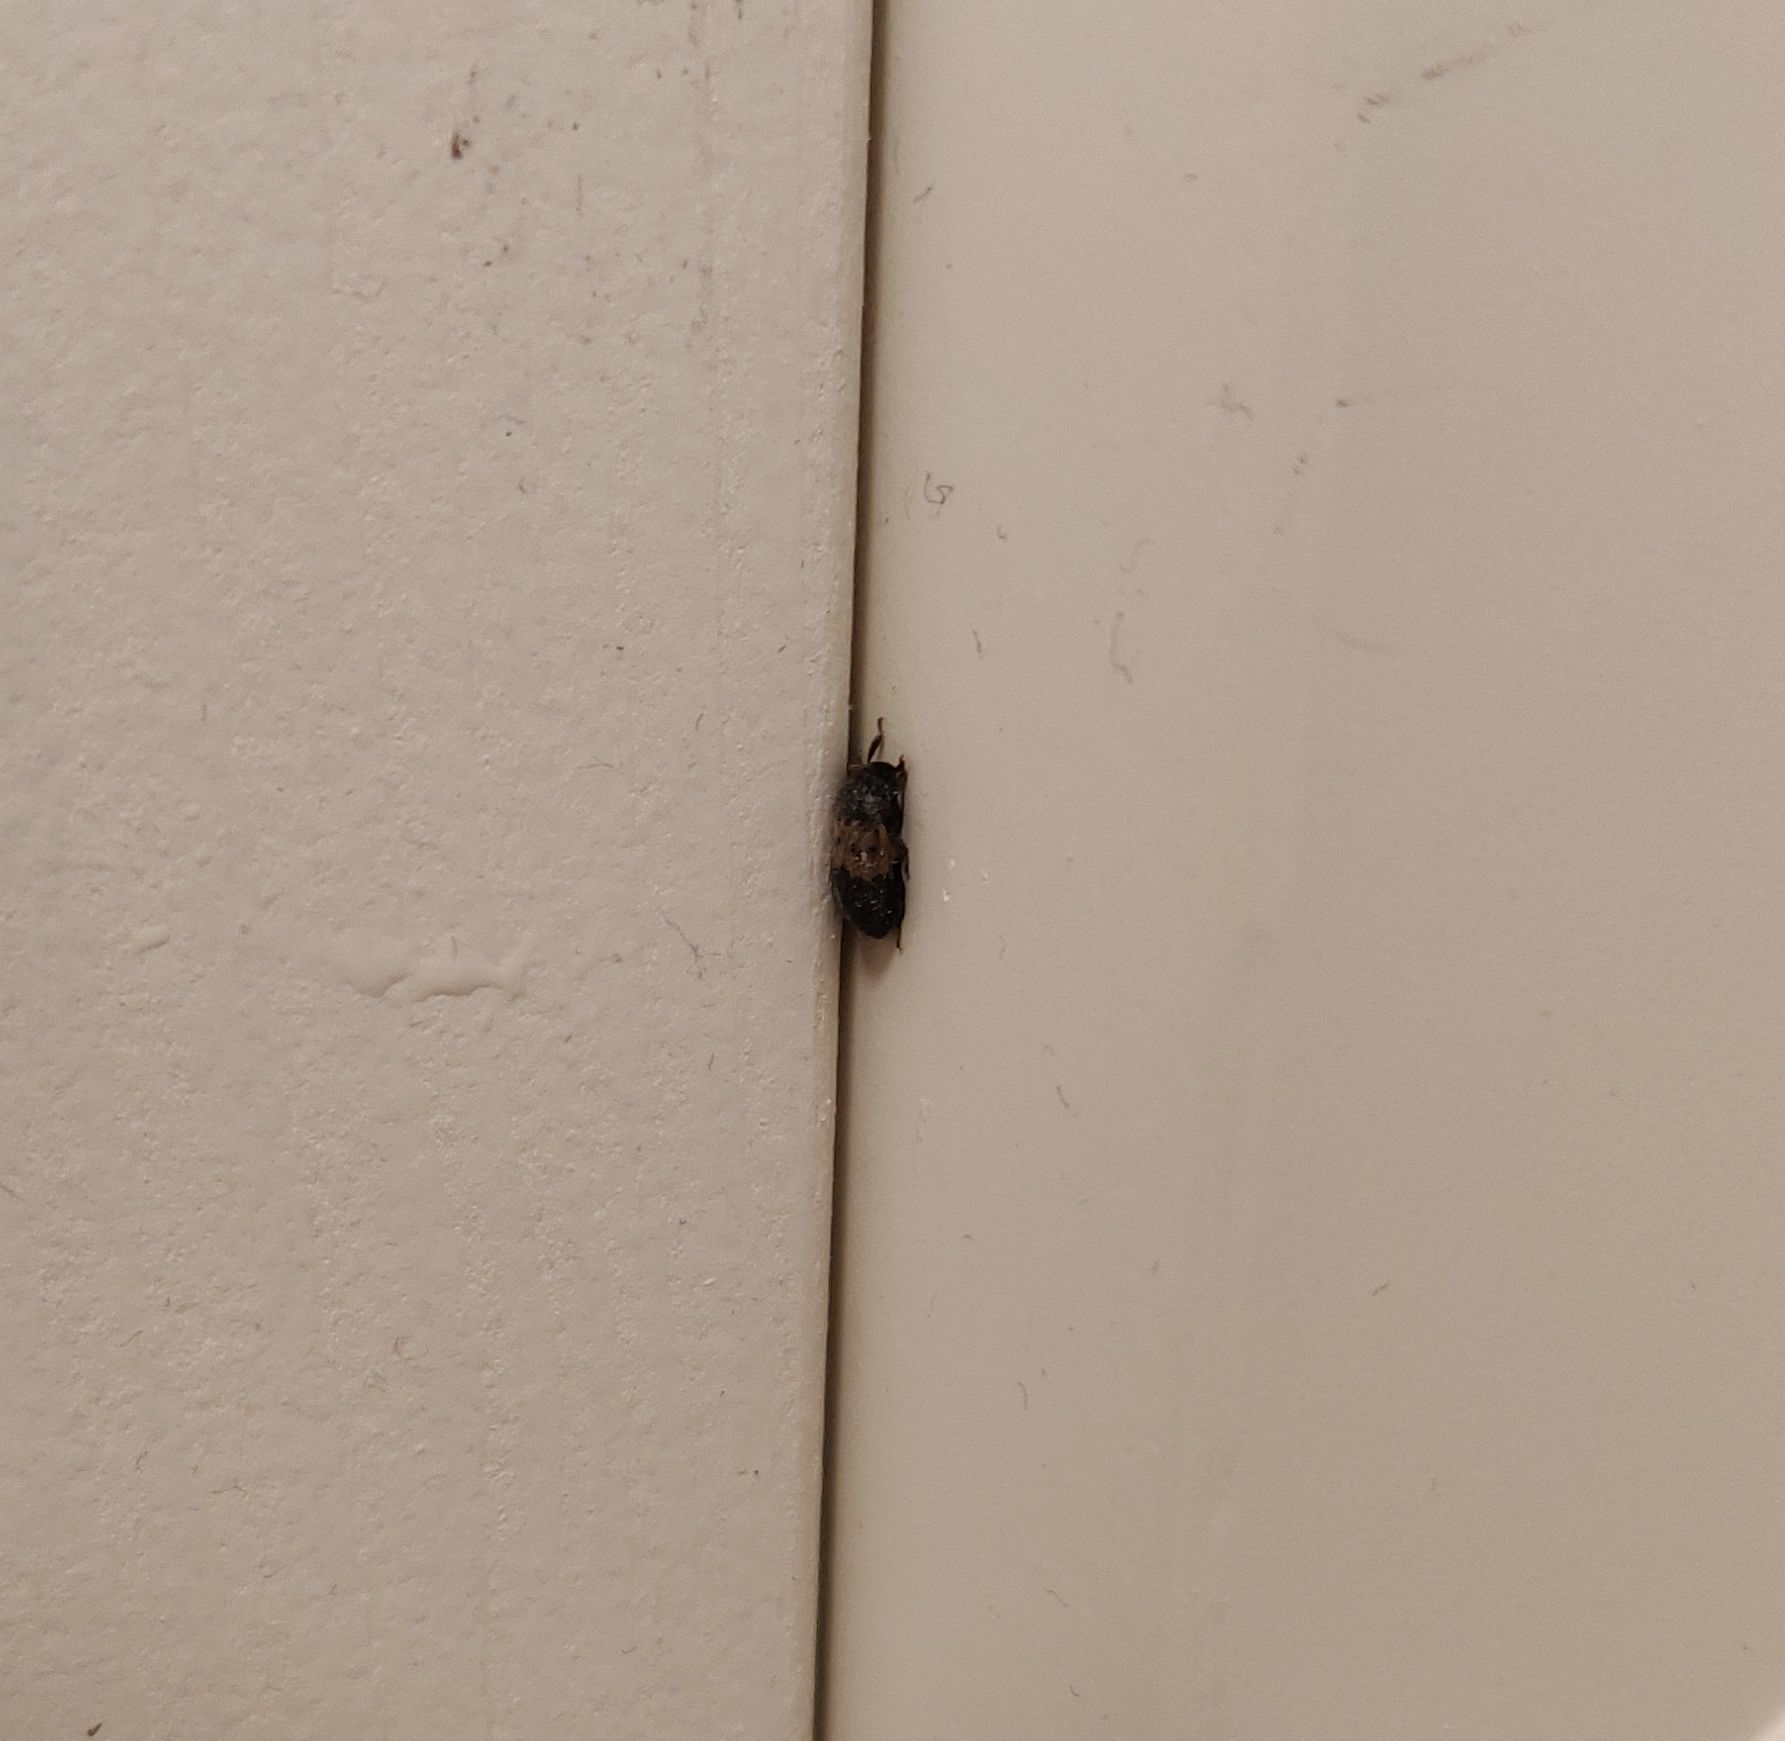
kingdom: Animalia
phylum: Arthropoda
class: Insecta
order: Coleoptera
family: Dermestidae
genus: Dermestes
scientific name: Dermestes lardarius
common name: Larder beetle
